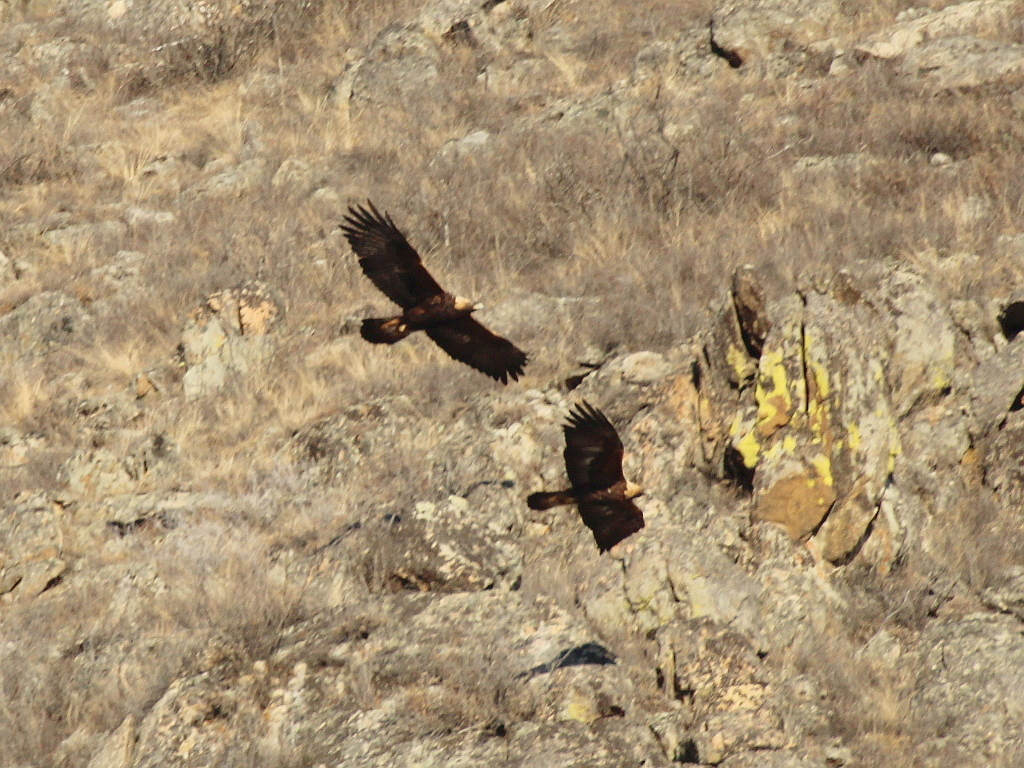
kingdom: Animalia
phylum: Chordata
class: Aves
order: Accipitriformes
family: Accipitridae
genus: Aquila
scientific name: Aquila chrysaetos
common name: Golden eagle
